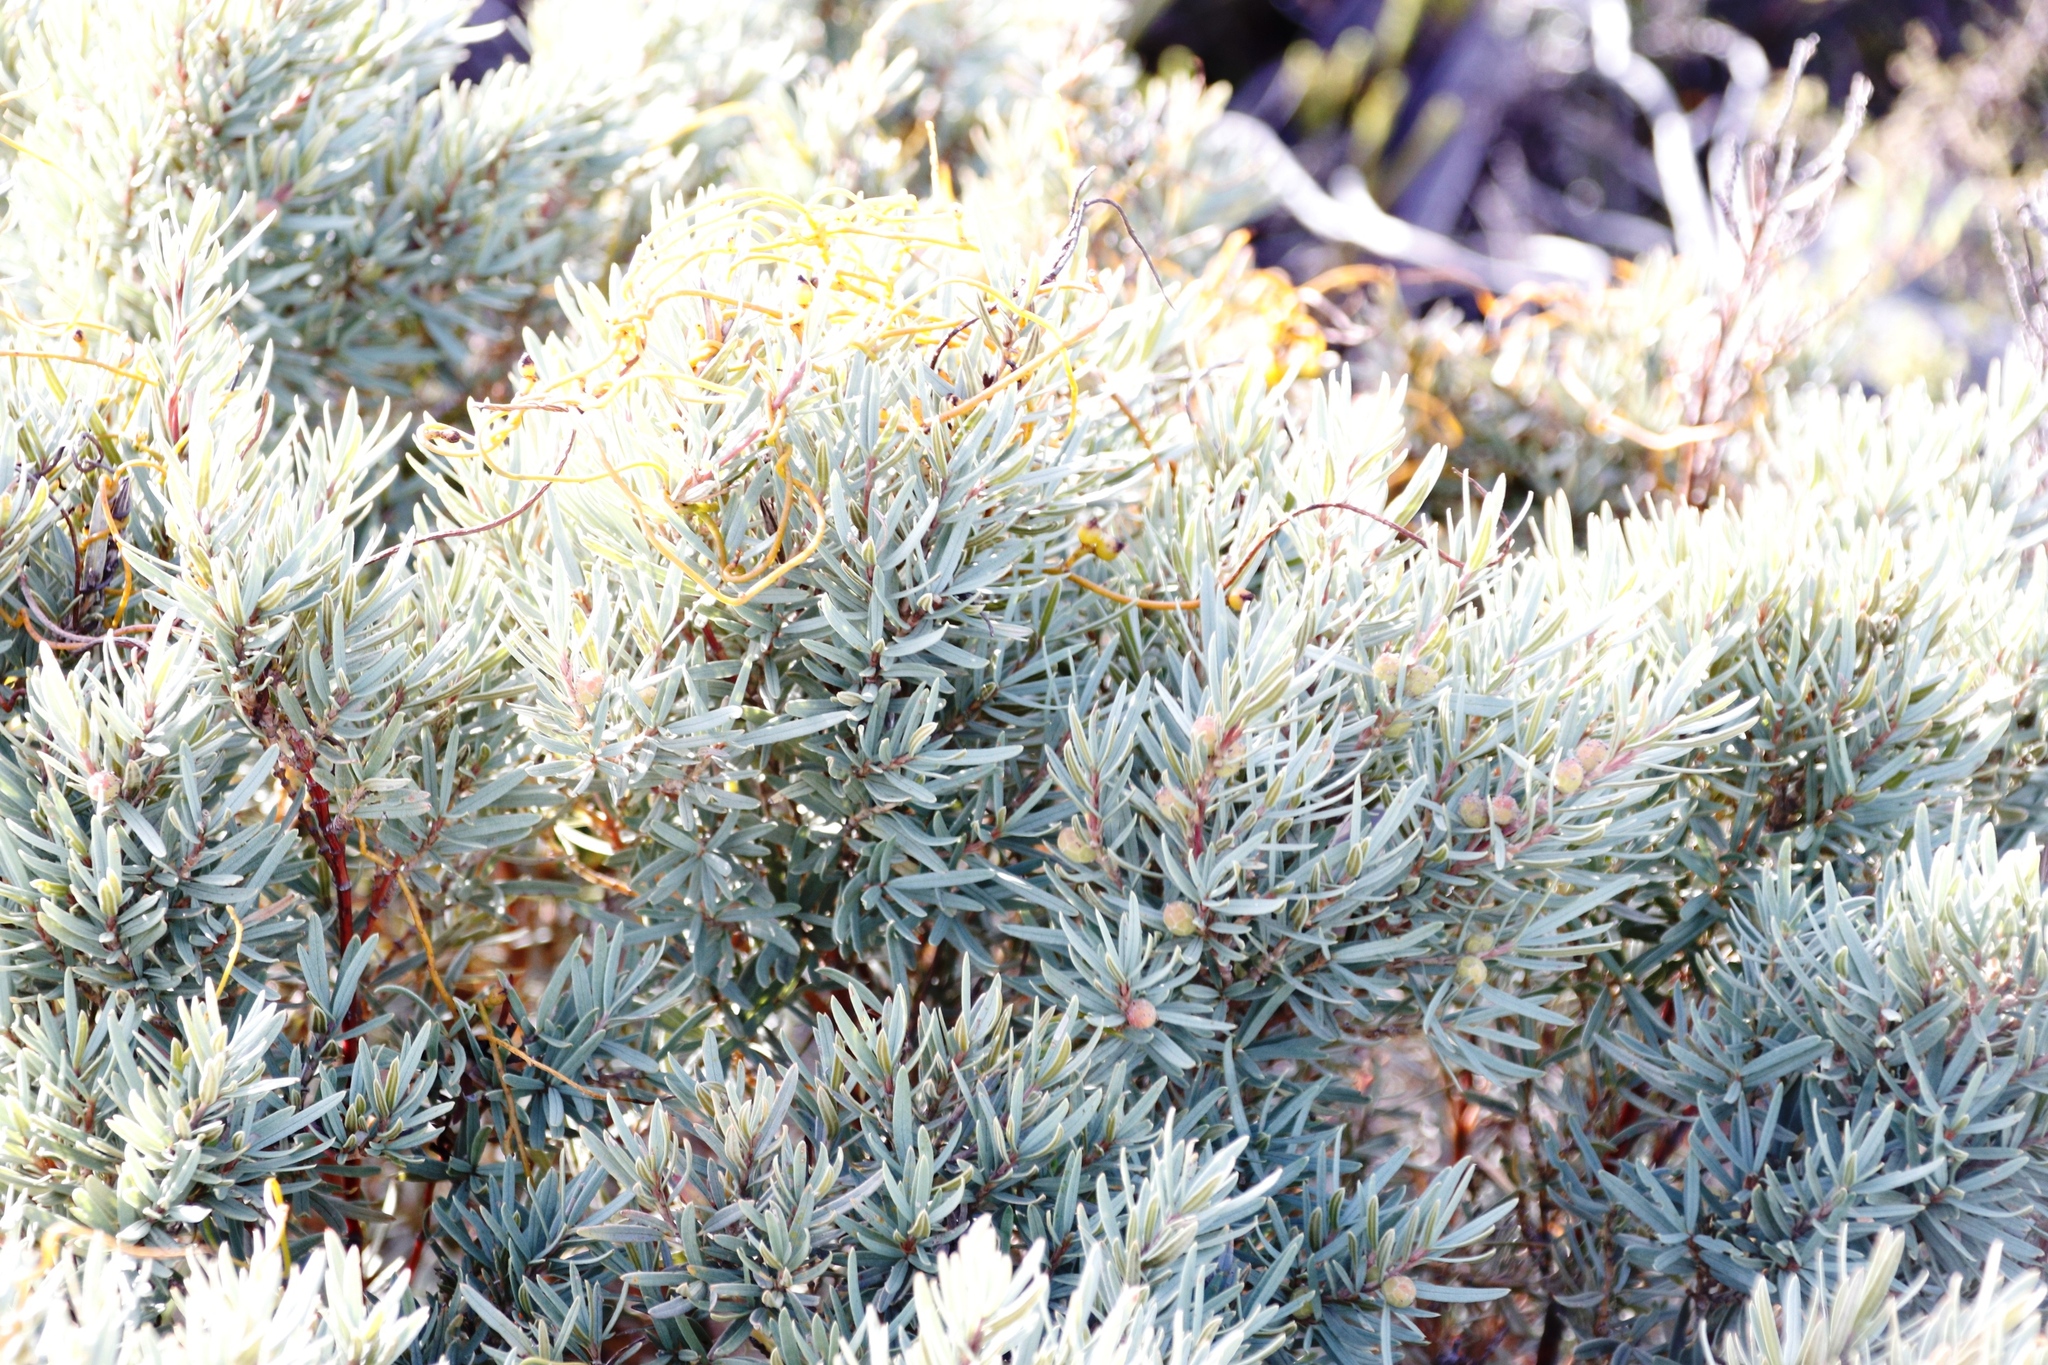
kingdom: Plantae
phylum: Tracheophyta
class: Magnoliopsida
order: Laurales
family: Lauraceae
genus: Cassytha
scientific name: Cassytha ciliolata
